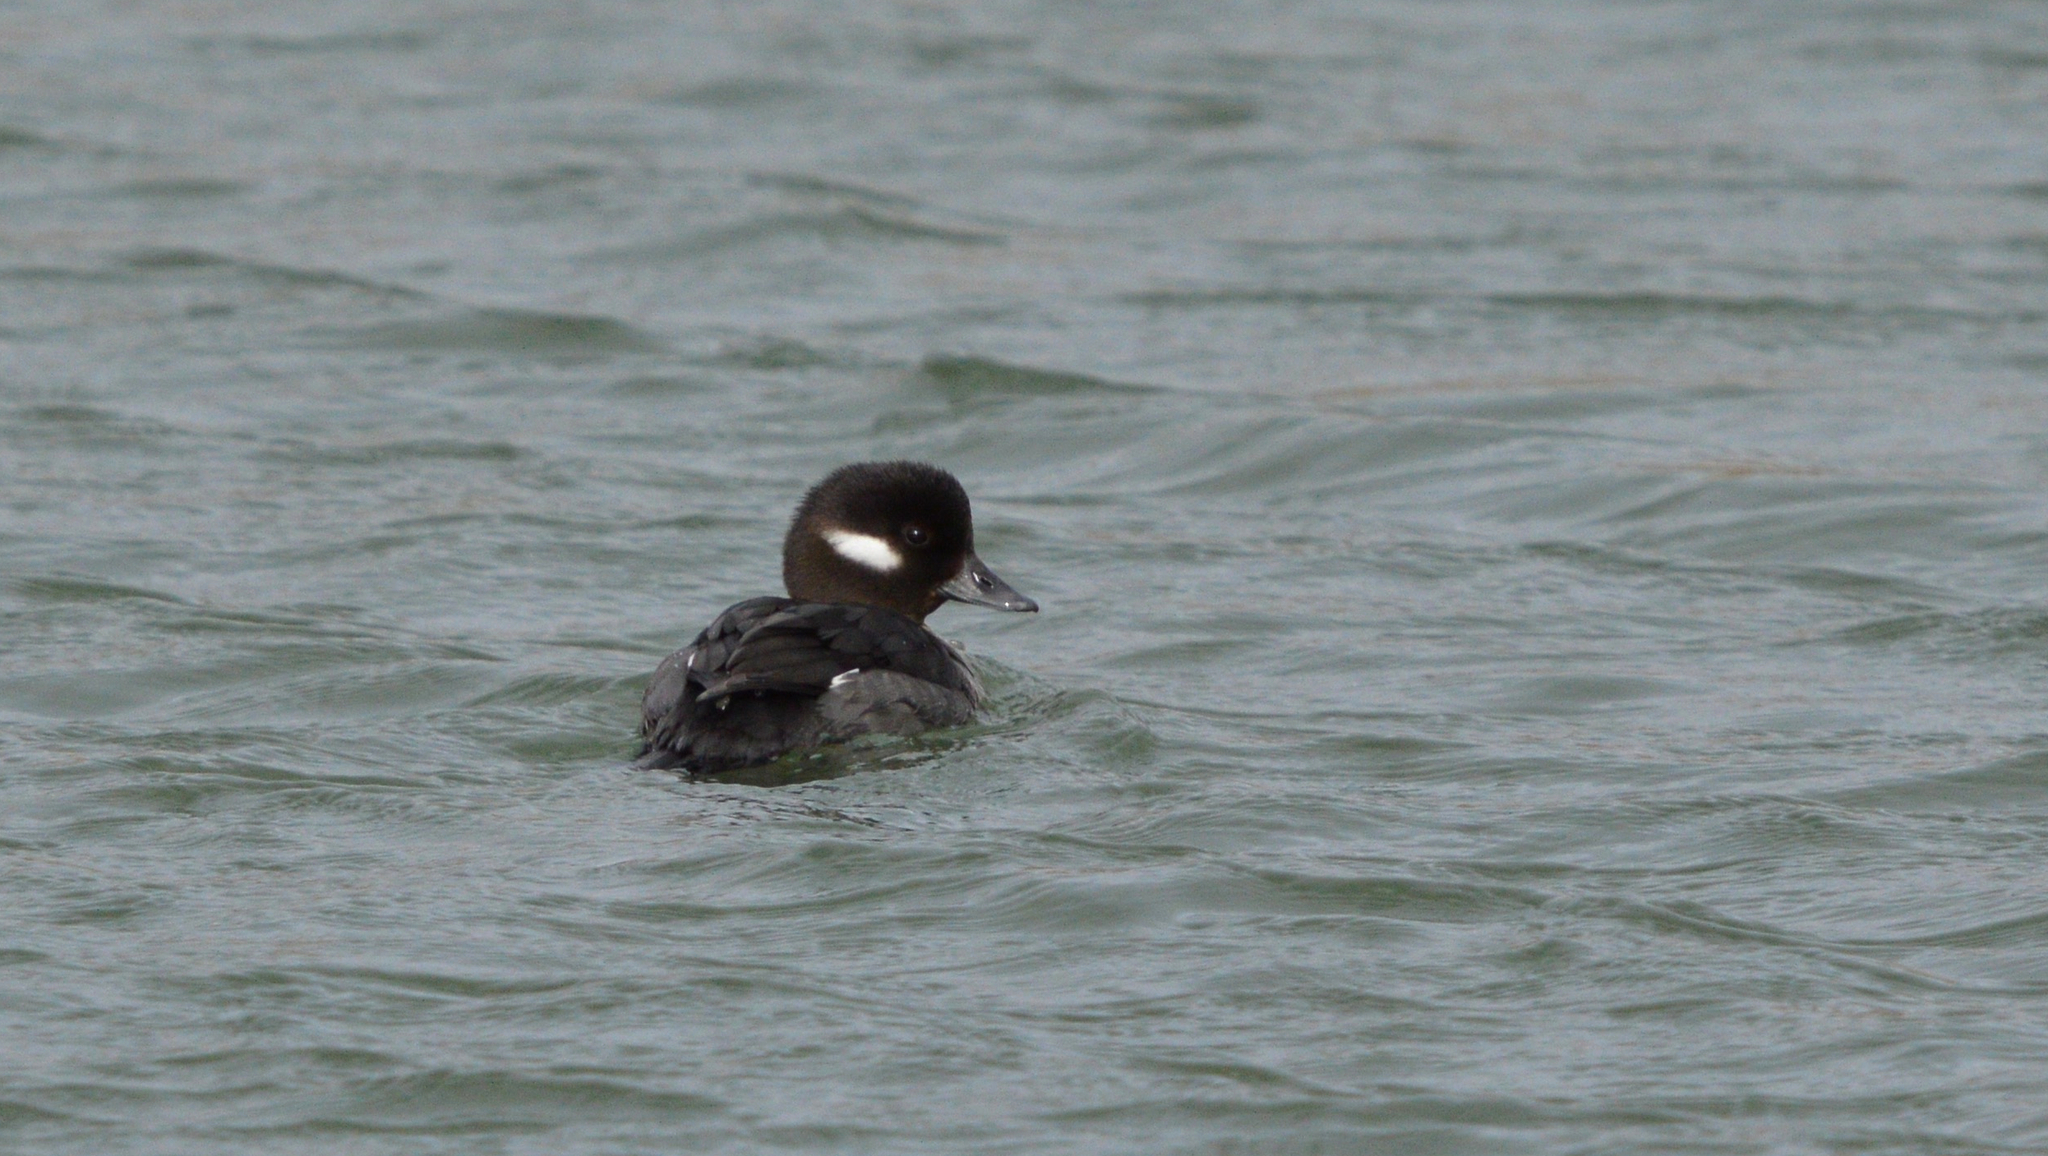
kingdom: Animalia
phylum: Chordata
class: Aves
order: Anseriformes
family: Anatidae
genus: Bucephala
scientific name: Bucephala albeola
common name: Bufflehead
